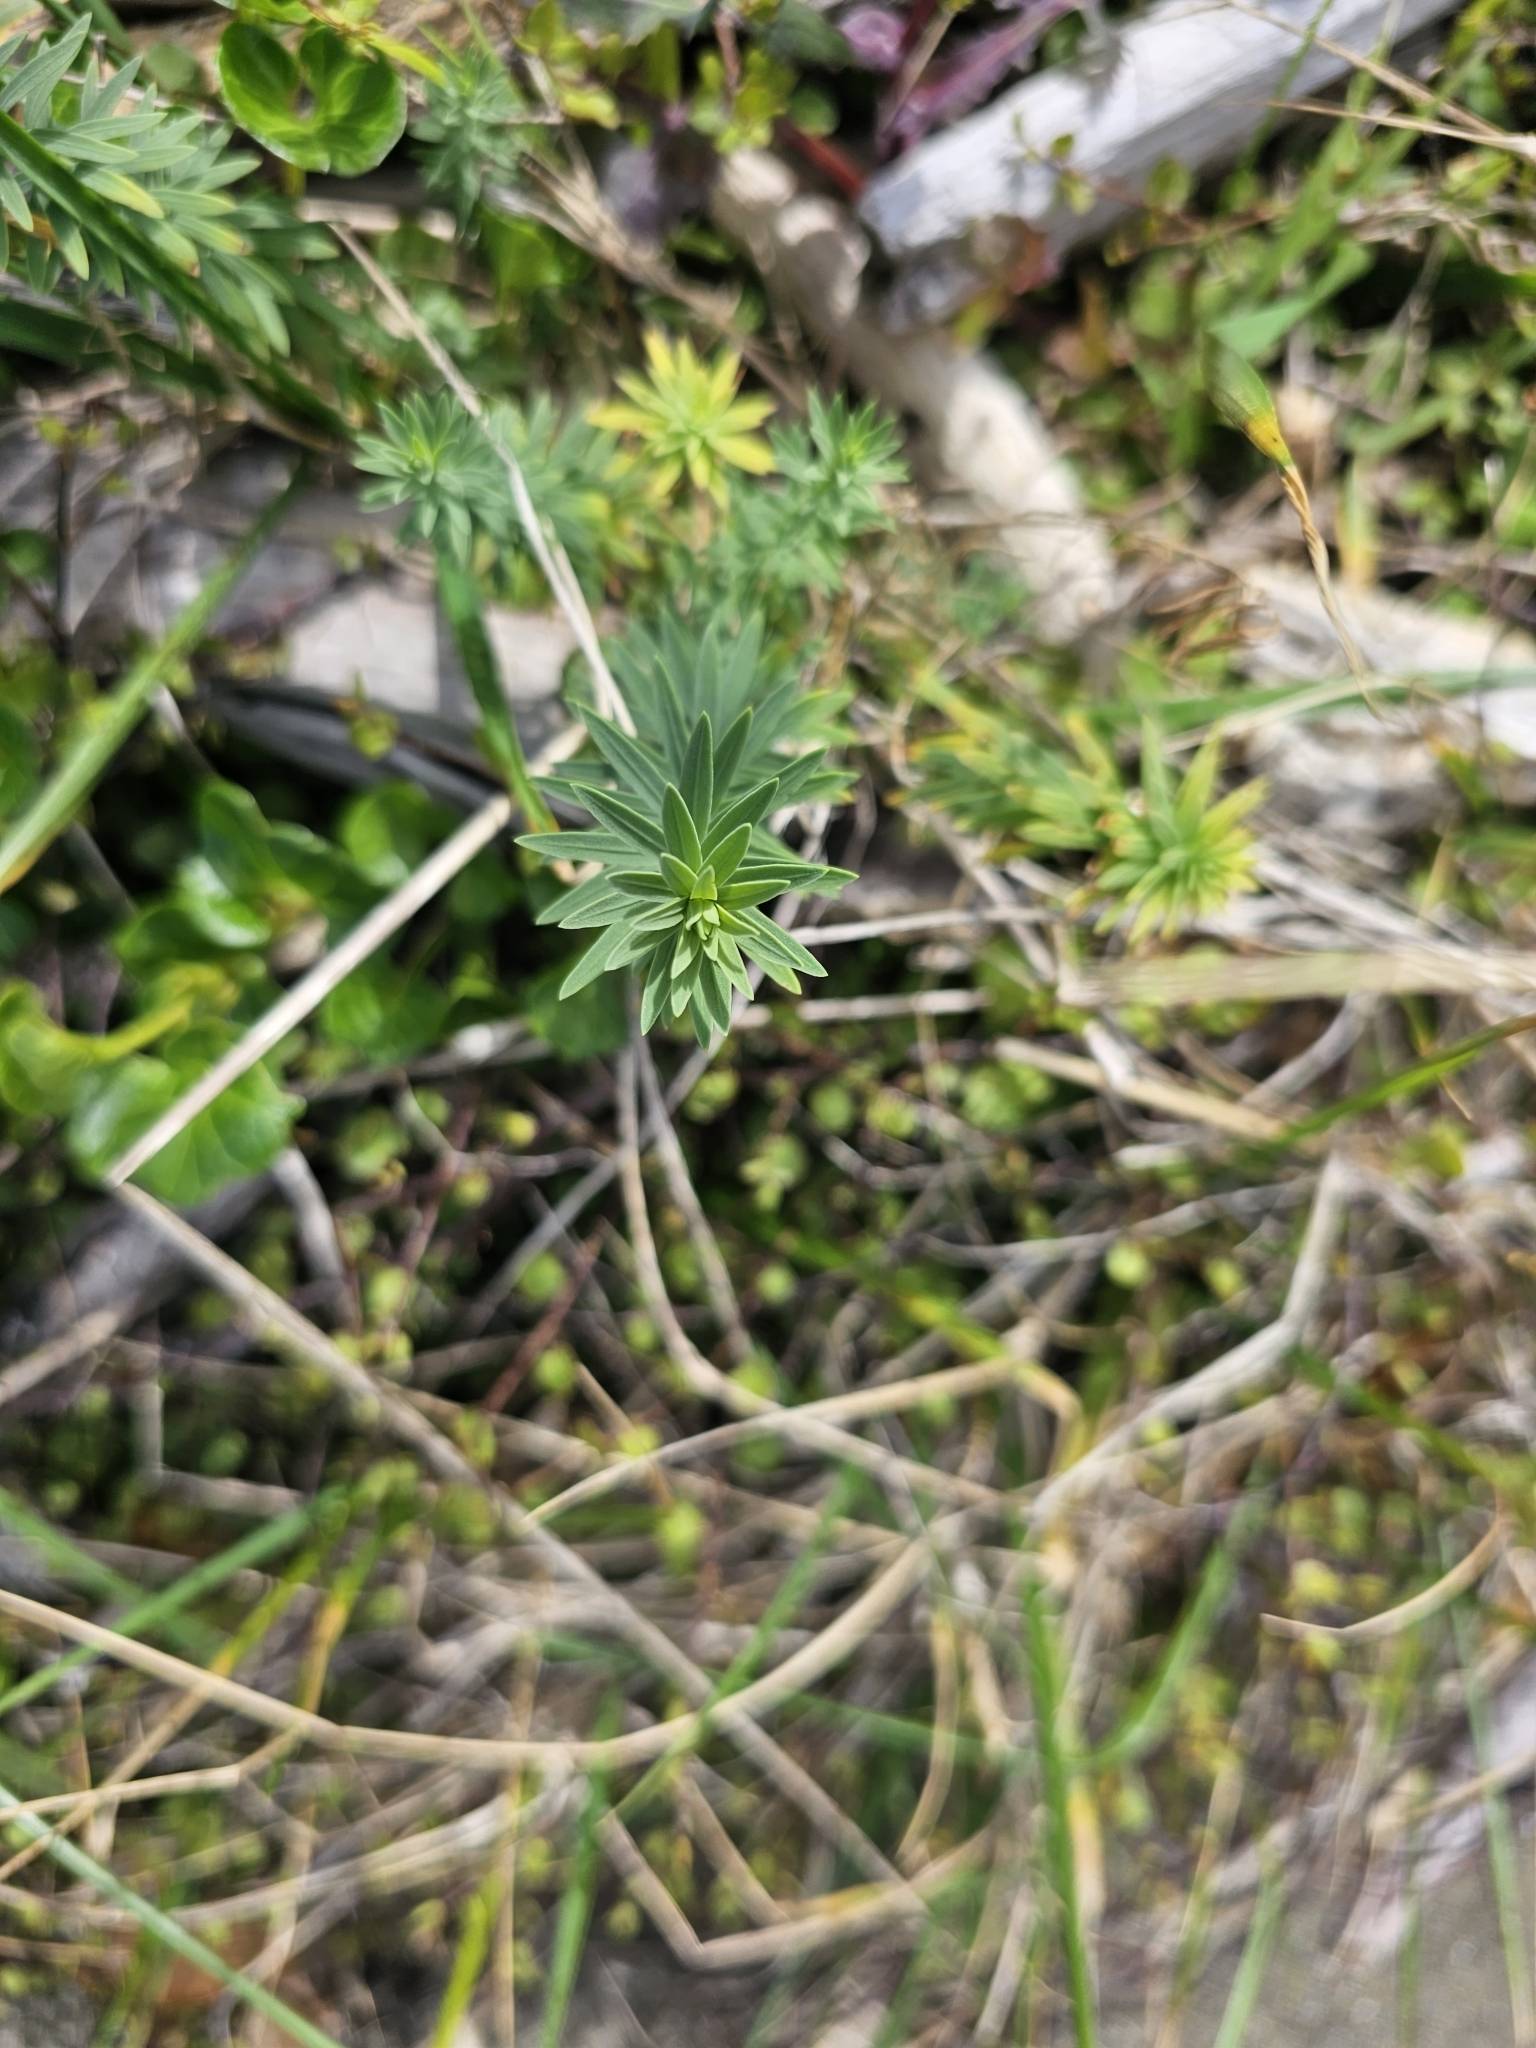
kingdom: Plantae
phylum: Tracheophyta
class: Magnoliopsida
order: Malpighiales
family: Linaceae
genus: Linum
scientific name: Linum monogynum
